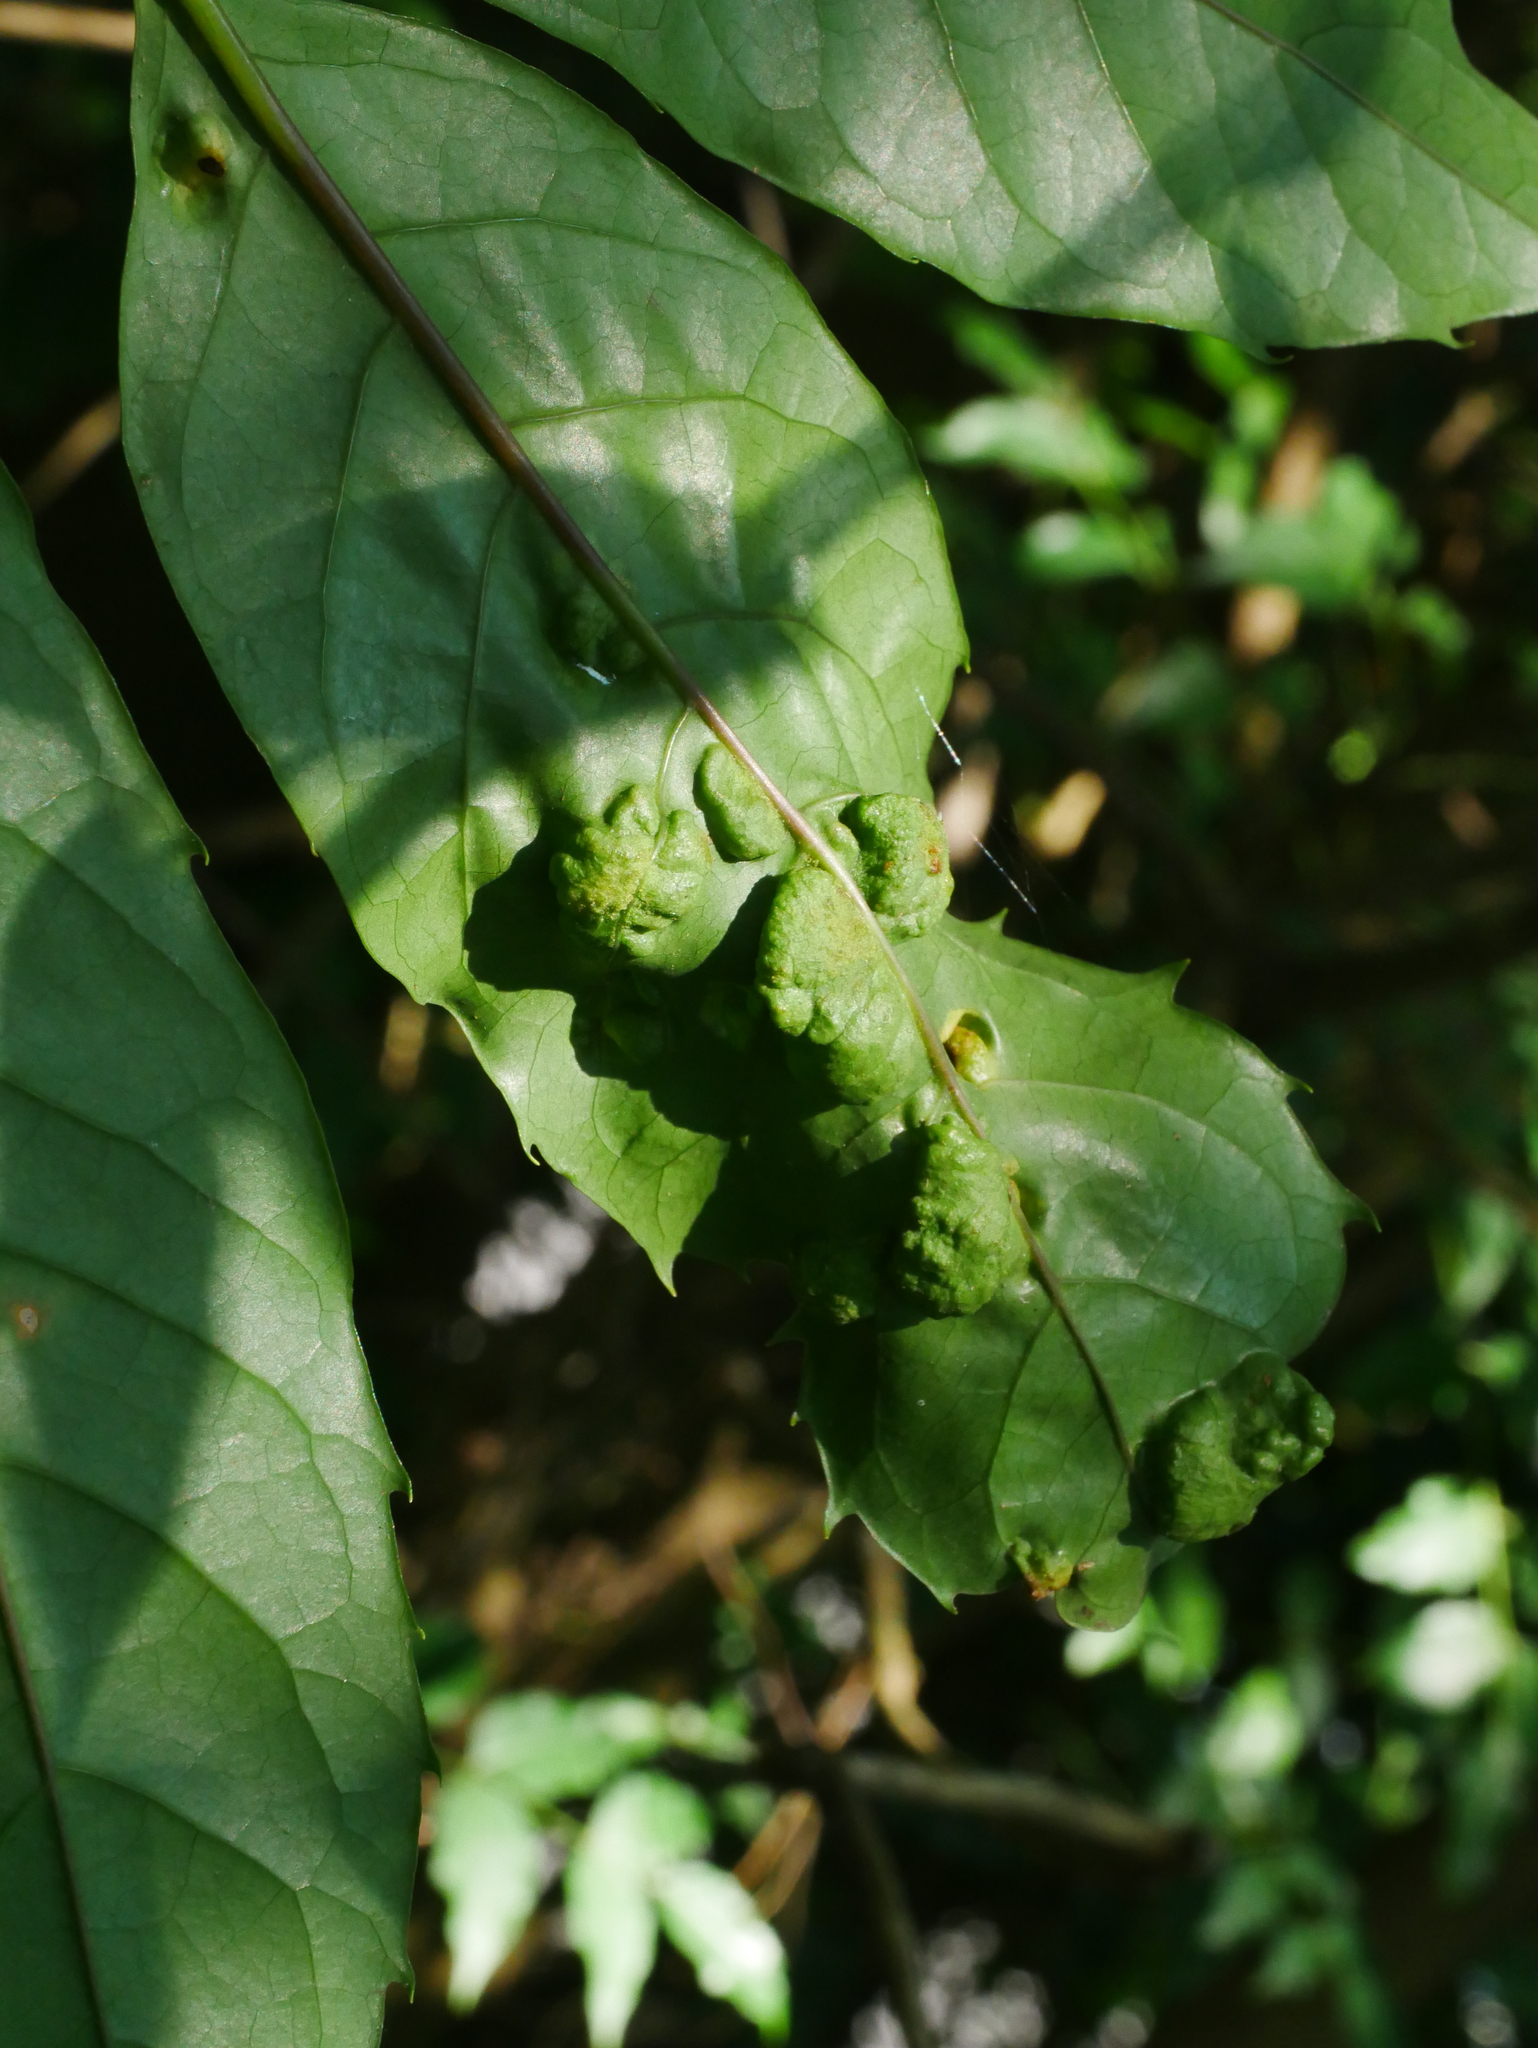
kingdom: Animalia
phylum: Arthropoda
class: Arachnida
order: Trombidiformes
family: Eriophyidae
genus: Abacarus
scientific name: Abacarus eminens
